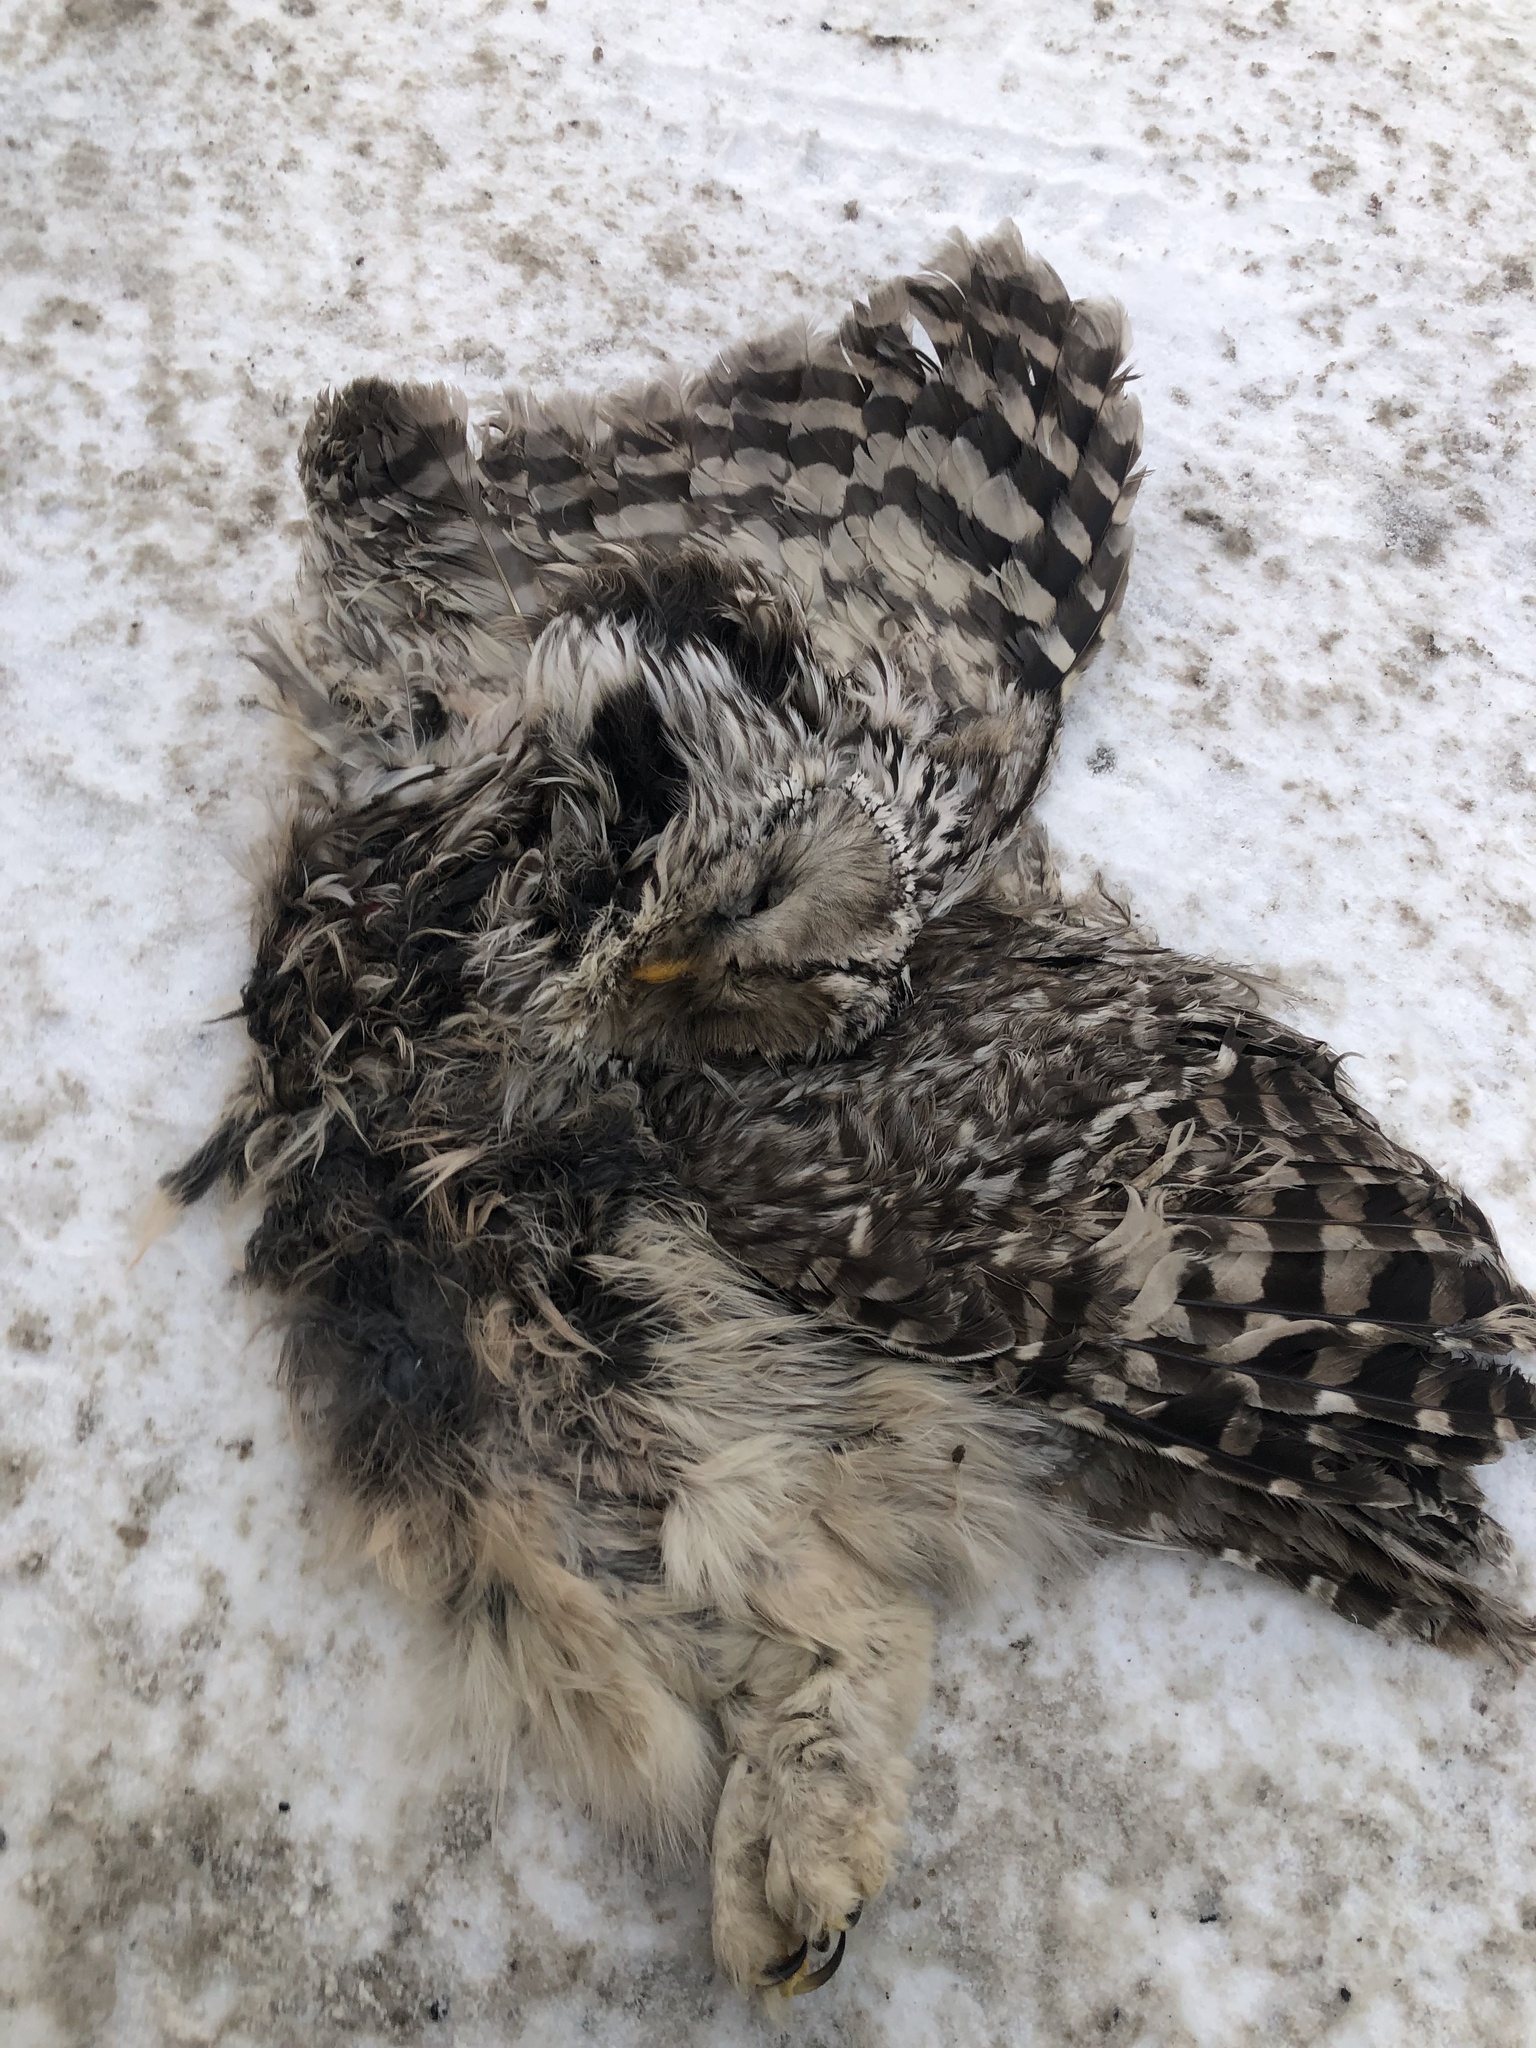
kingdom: Animalia
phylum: Chordata
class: Aves
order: Strigiformes
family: Strigidae
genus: Strix
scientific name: Strix uralensis
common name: Ural owl
